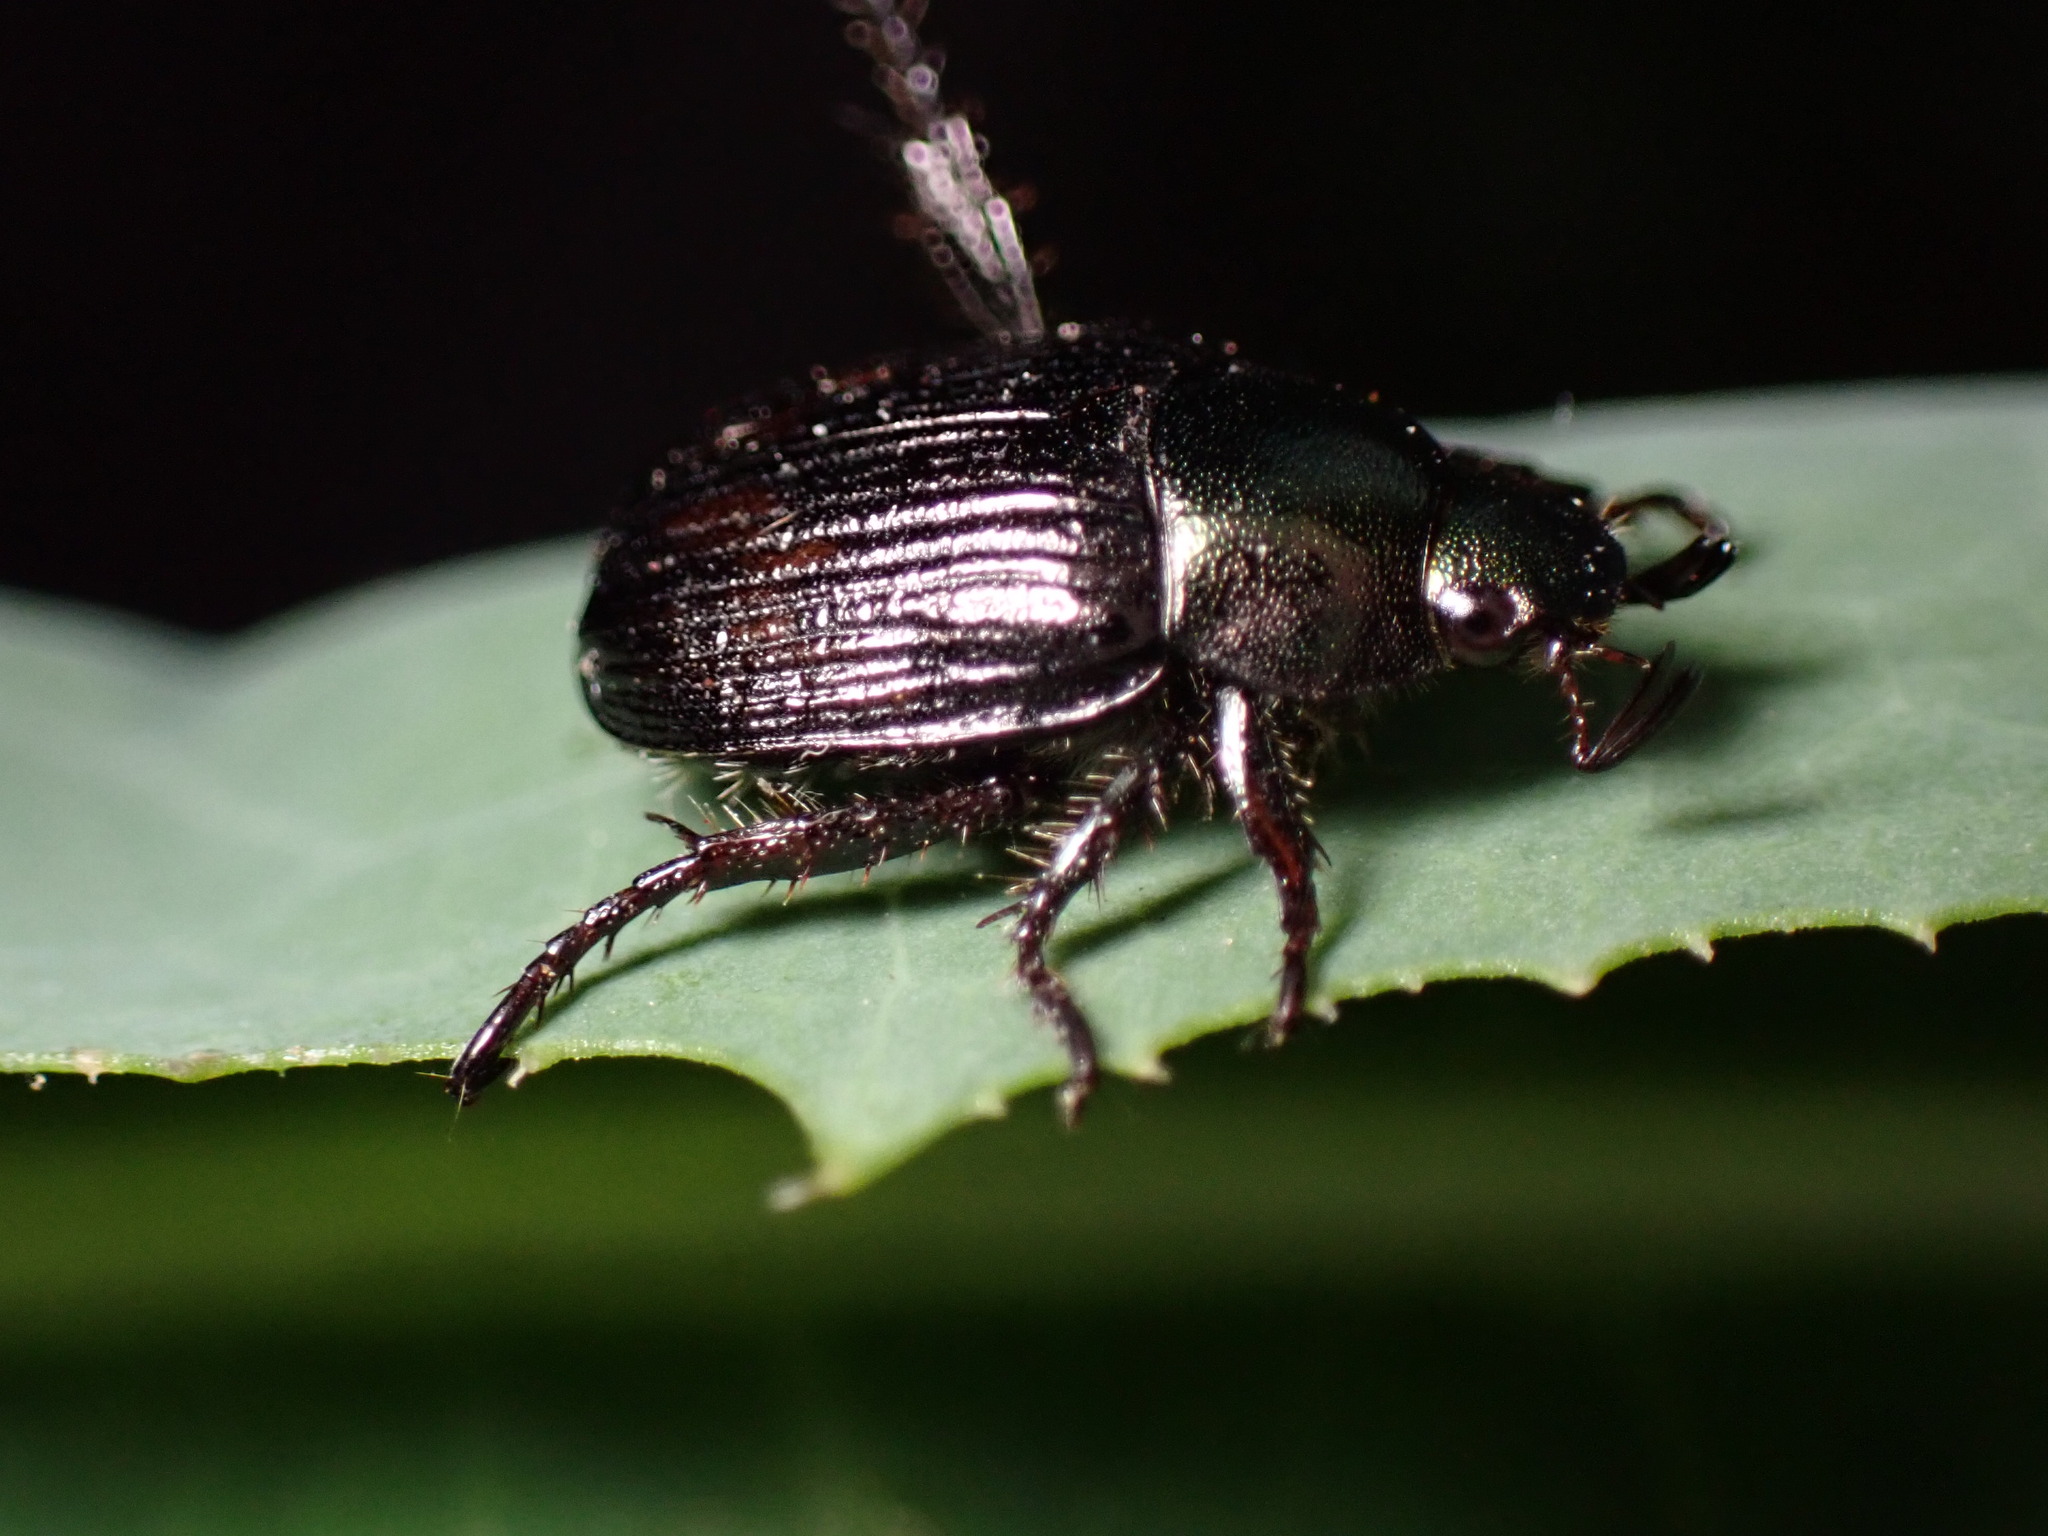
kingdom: Animalia
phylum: Arthropoda
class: Insecta
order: Coleoptera
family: Scarabaeidae
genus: Exomala
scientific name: Exomala orientalis
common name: Oriental beetle
